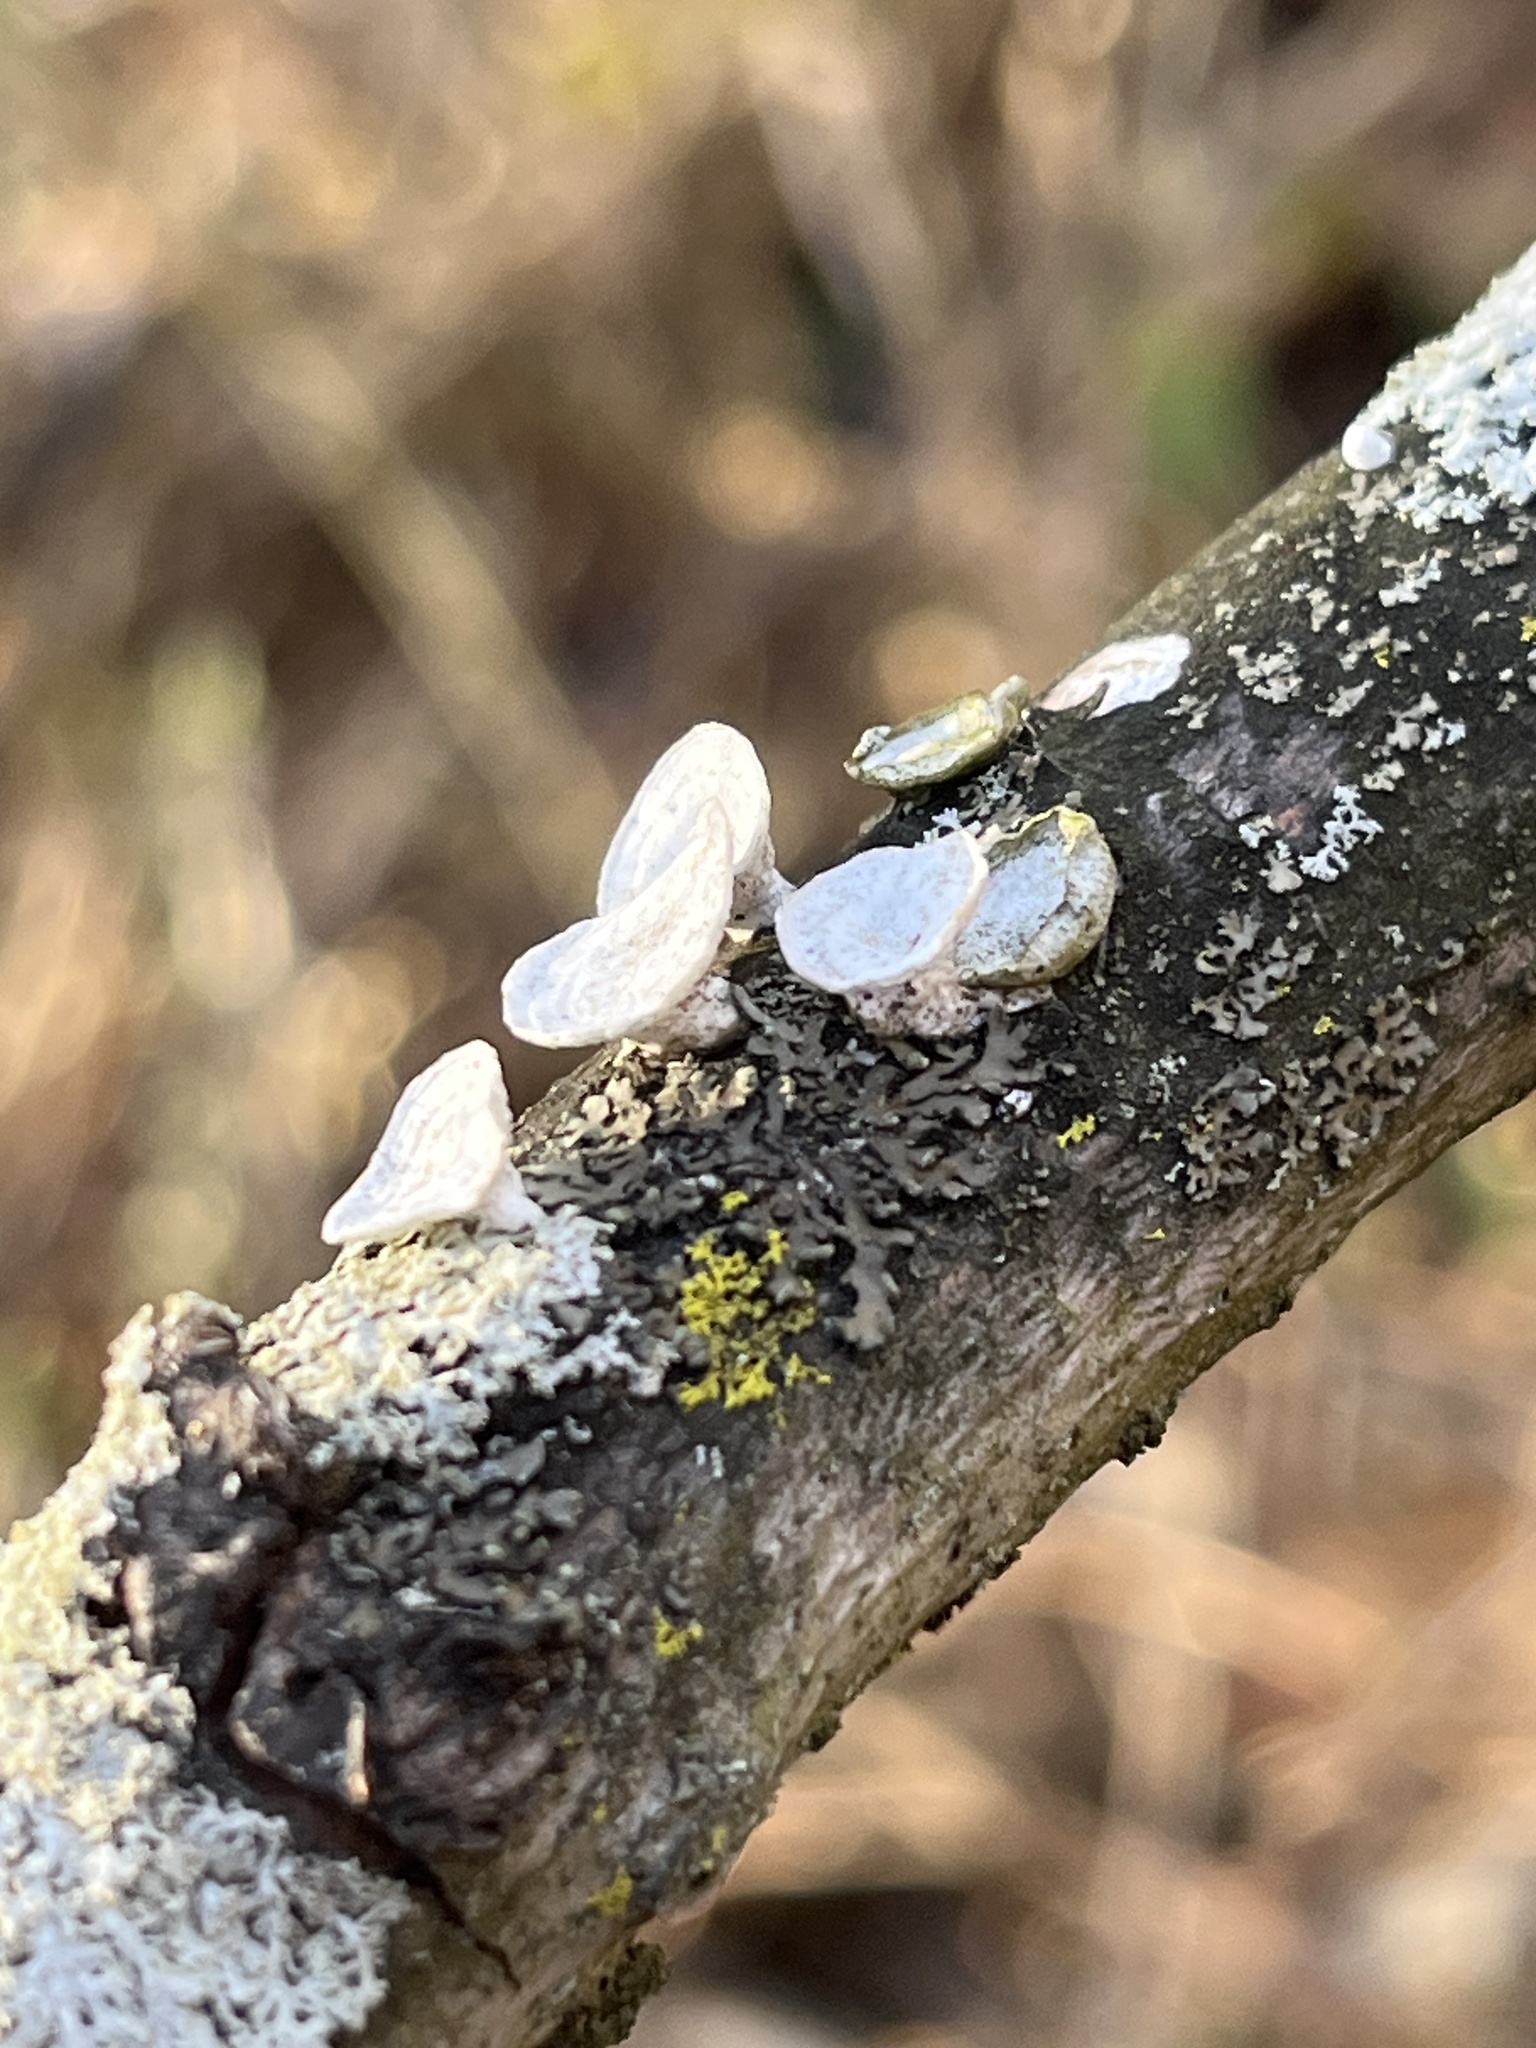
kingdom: Fungi
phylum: Basidiomycota
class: Agaricomycetes
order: Polyporales
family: Polyporaceae
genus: Poronidulus
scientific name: Poronidulus conchifer
